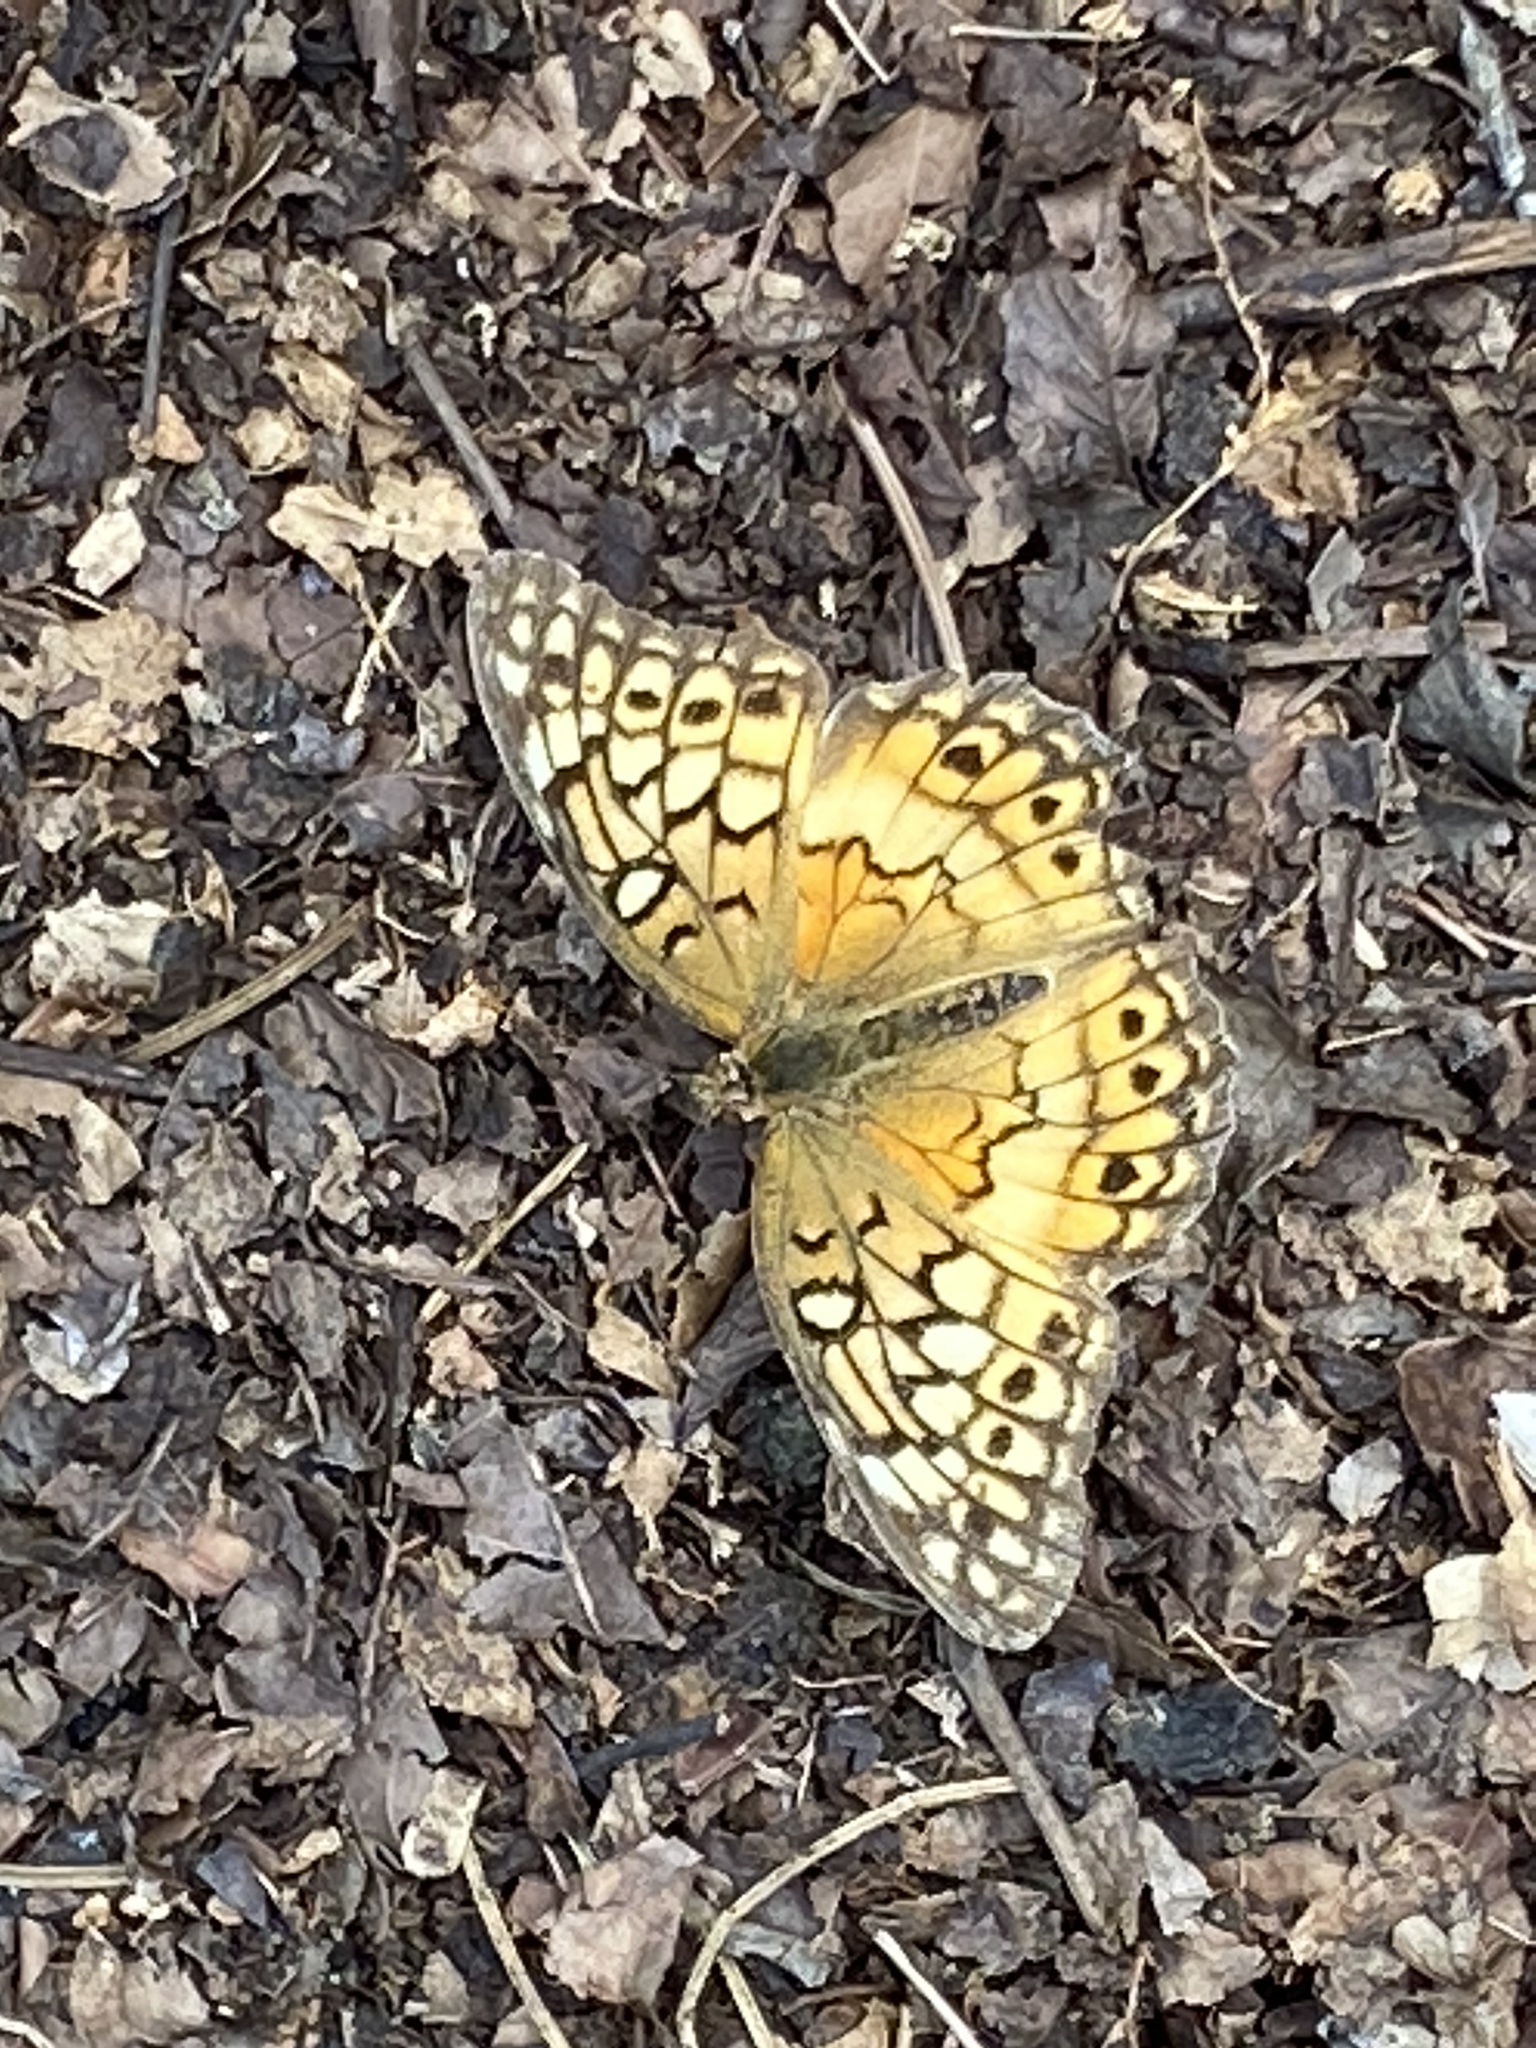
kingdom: Animalia
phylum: Arthropoda
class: Insecta
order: Lepidoptera
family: Nymphalidae
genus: Euptoieta
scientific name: Euptoieta claudia
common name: Variegated fritillary
